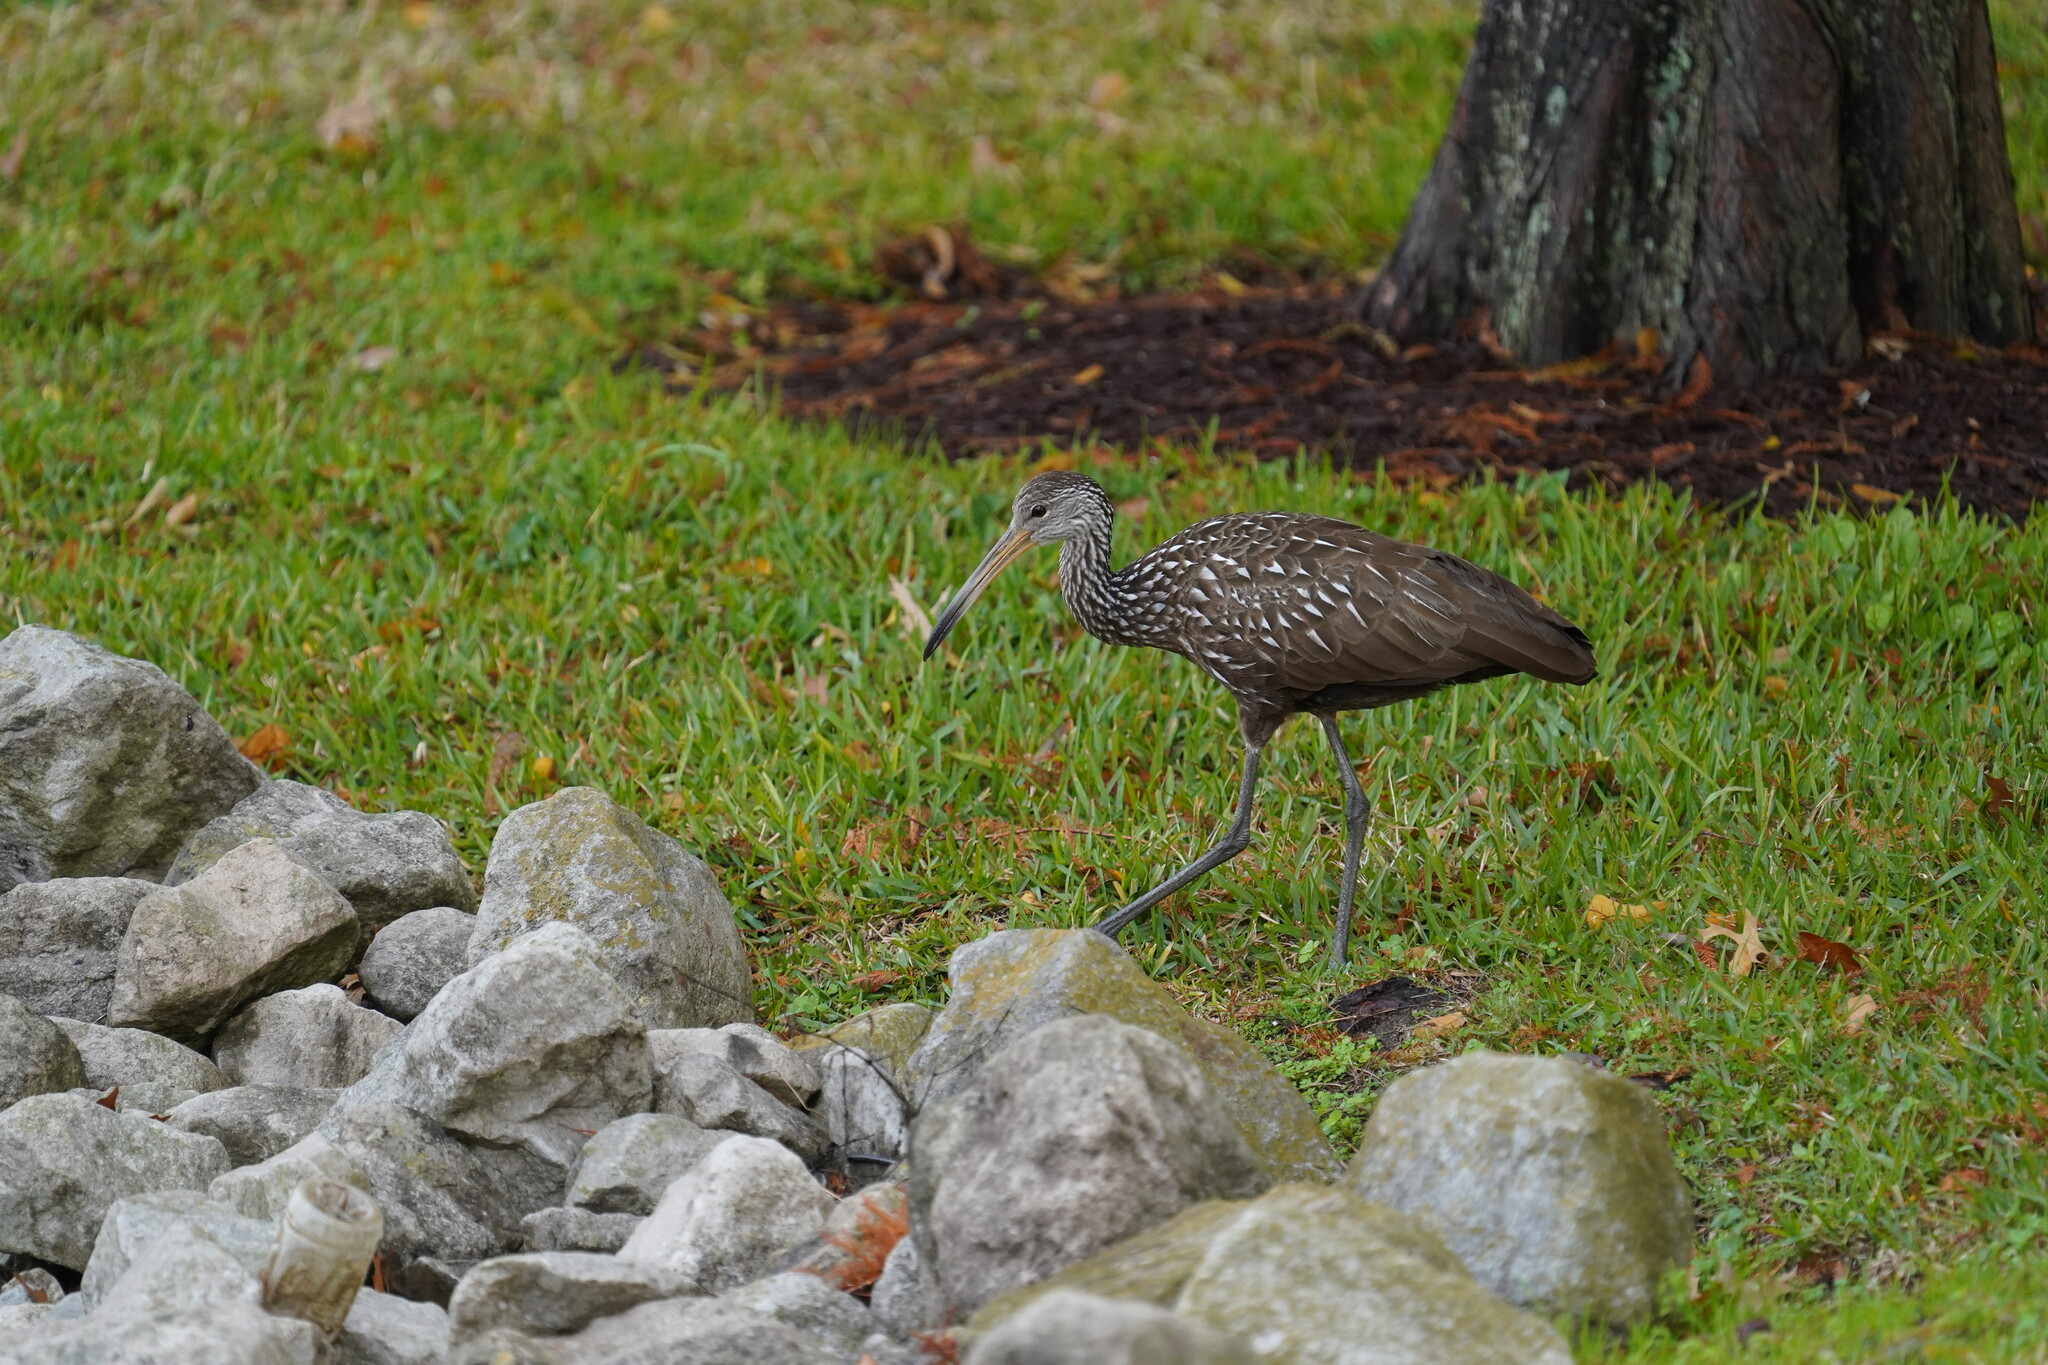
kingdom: Animalia
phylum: Chordata
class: Aves
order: Gruiformes
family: Aramidae
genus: Aramus
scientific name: Aramus guarauna
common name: Limpkin
